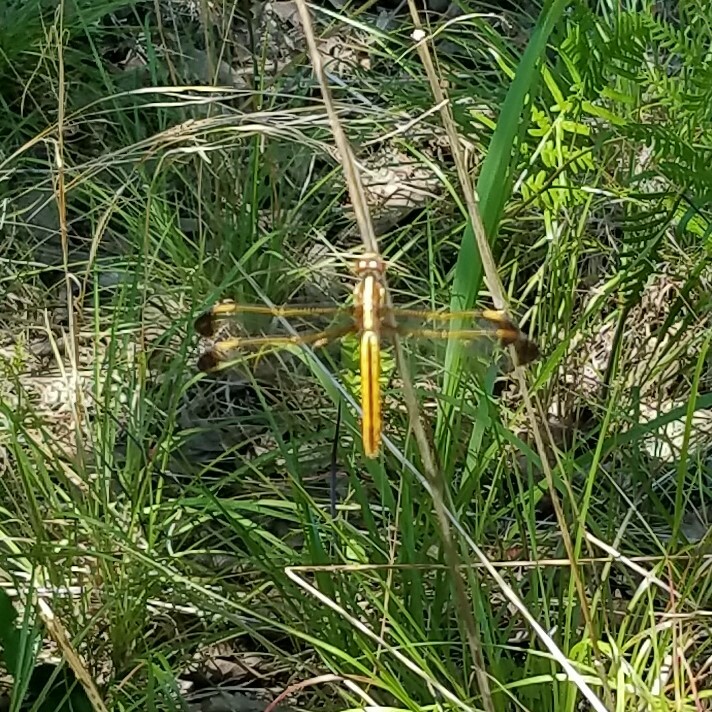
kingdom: Animalia
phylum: Arthropoda
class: Insecta
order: Odonata
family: Libellulidae
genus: Libellula
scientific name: Libellula flavida
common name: Yellow-sided skimmer
